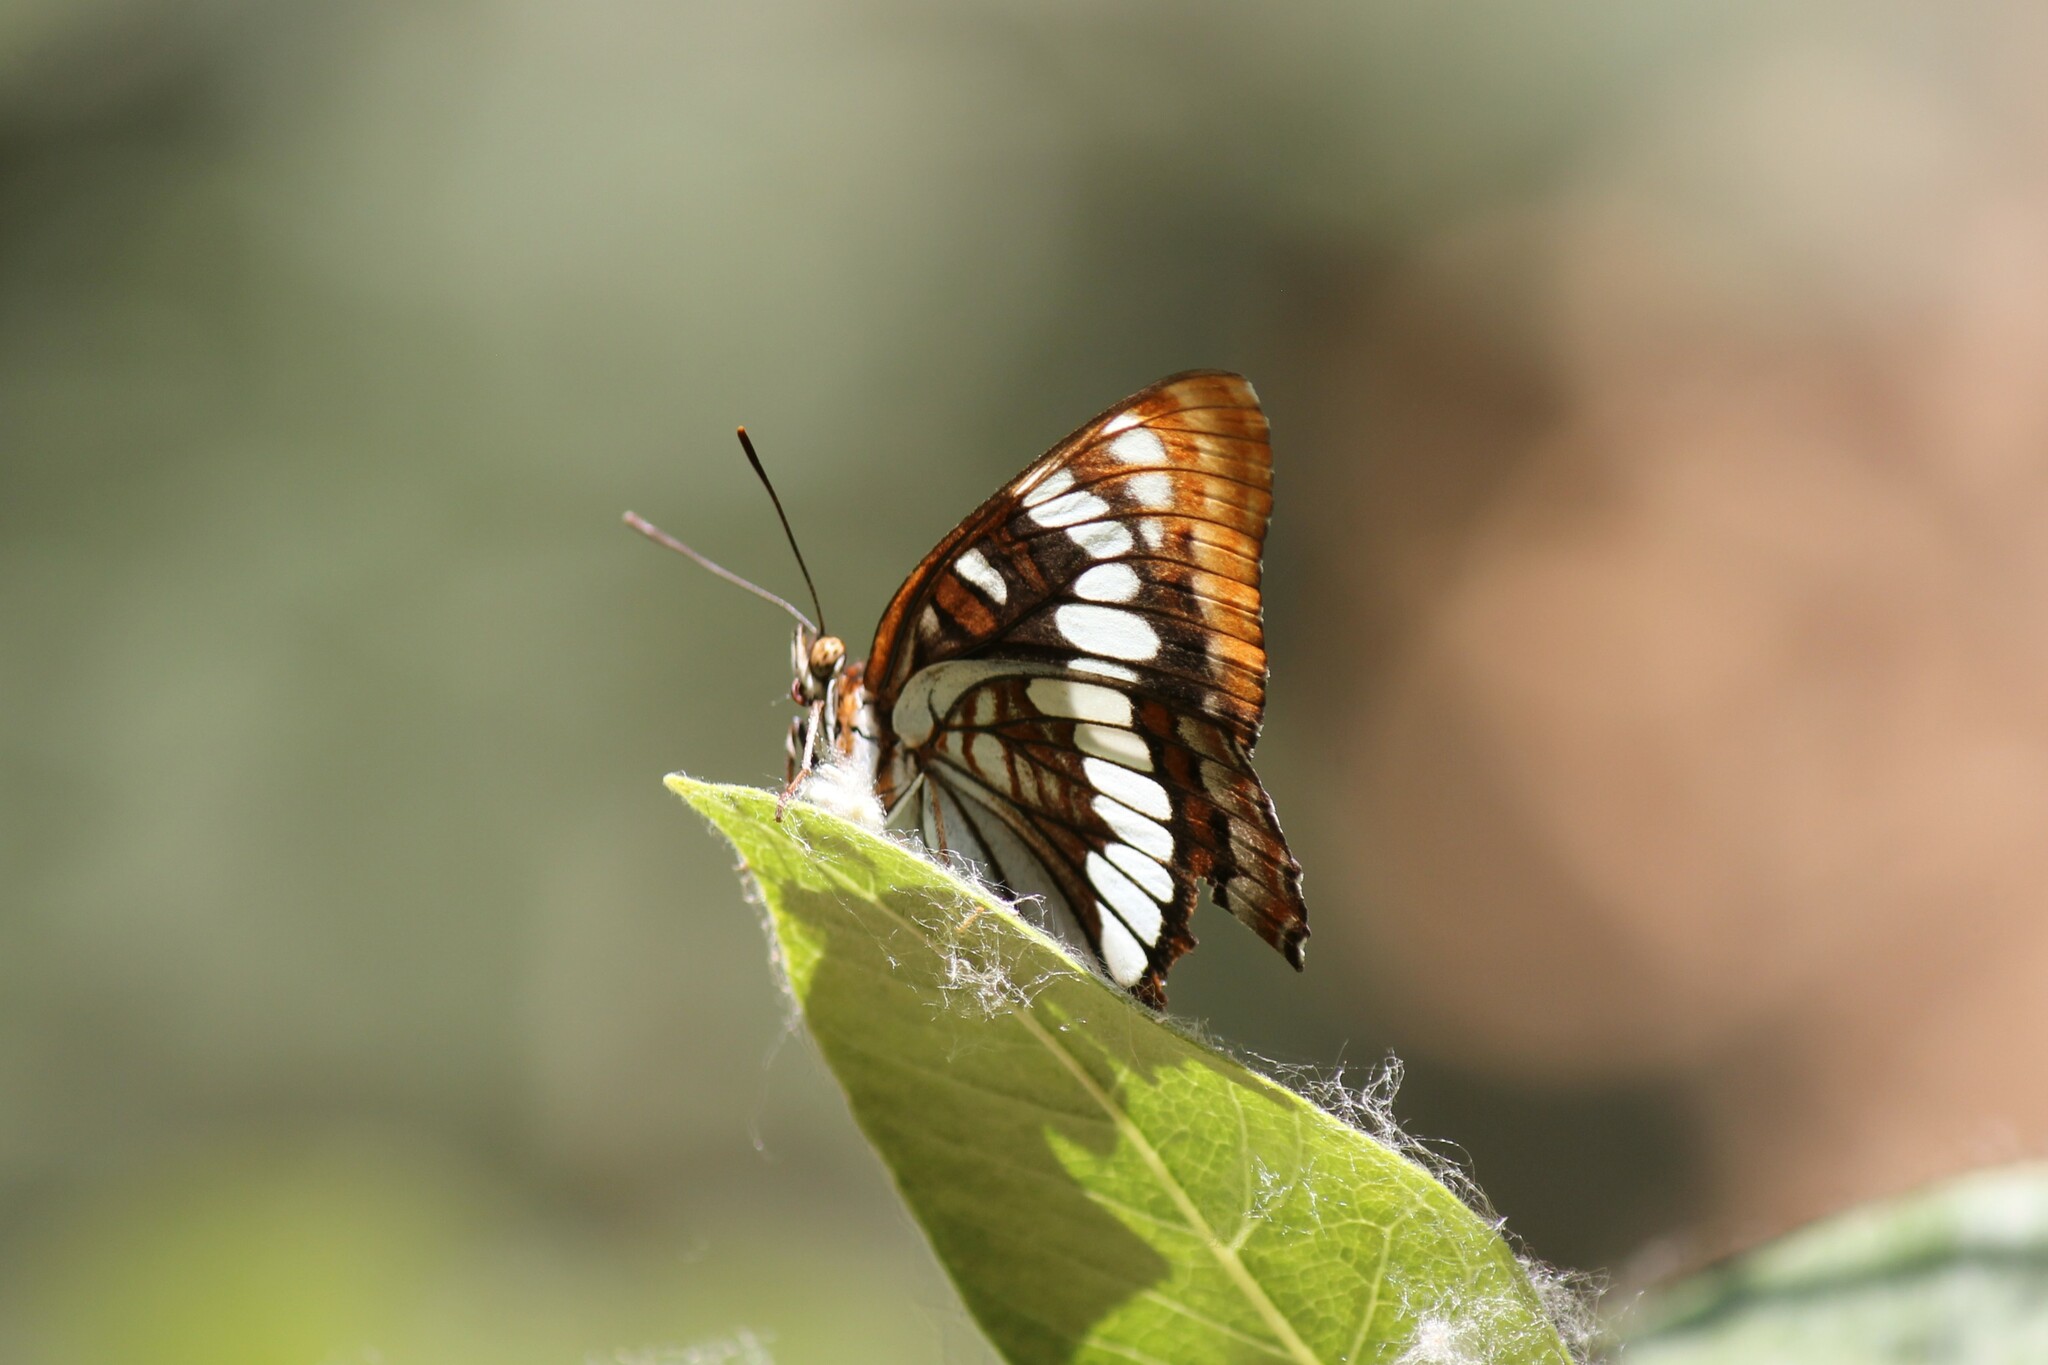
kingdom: Animalia
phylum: Arthropoda
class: Insecta
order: Lepidoptera
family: Nymphalidae
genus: Limenitis
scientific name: Limenitis lorquini
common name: Lorquin's admiral
